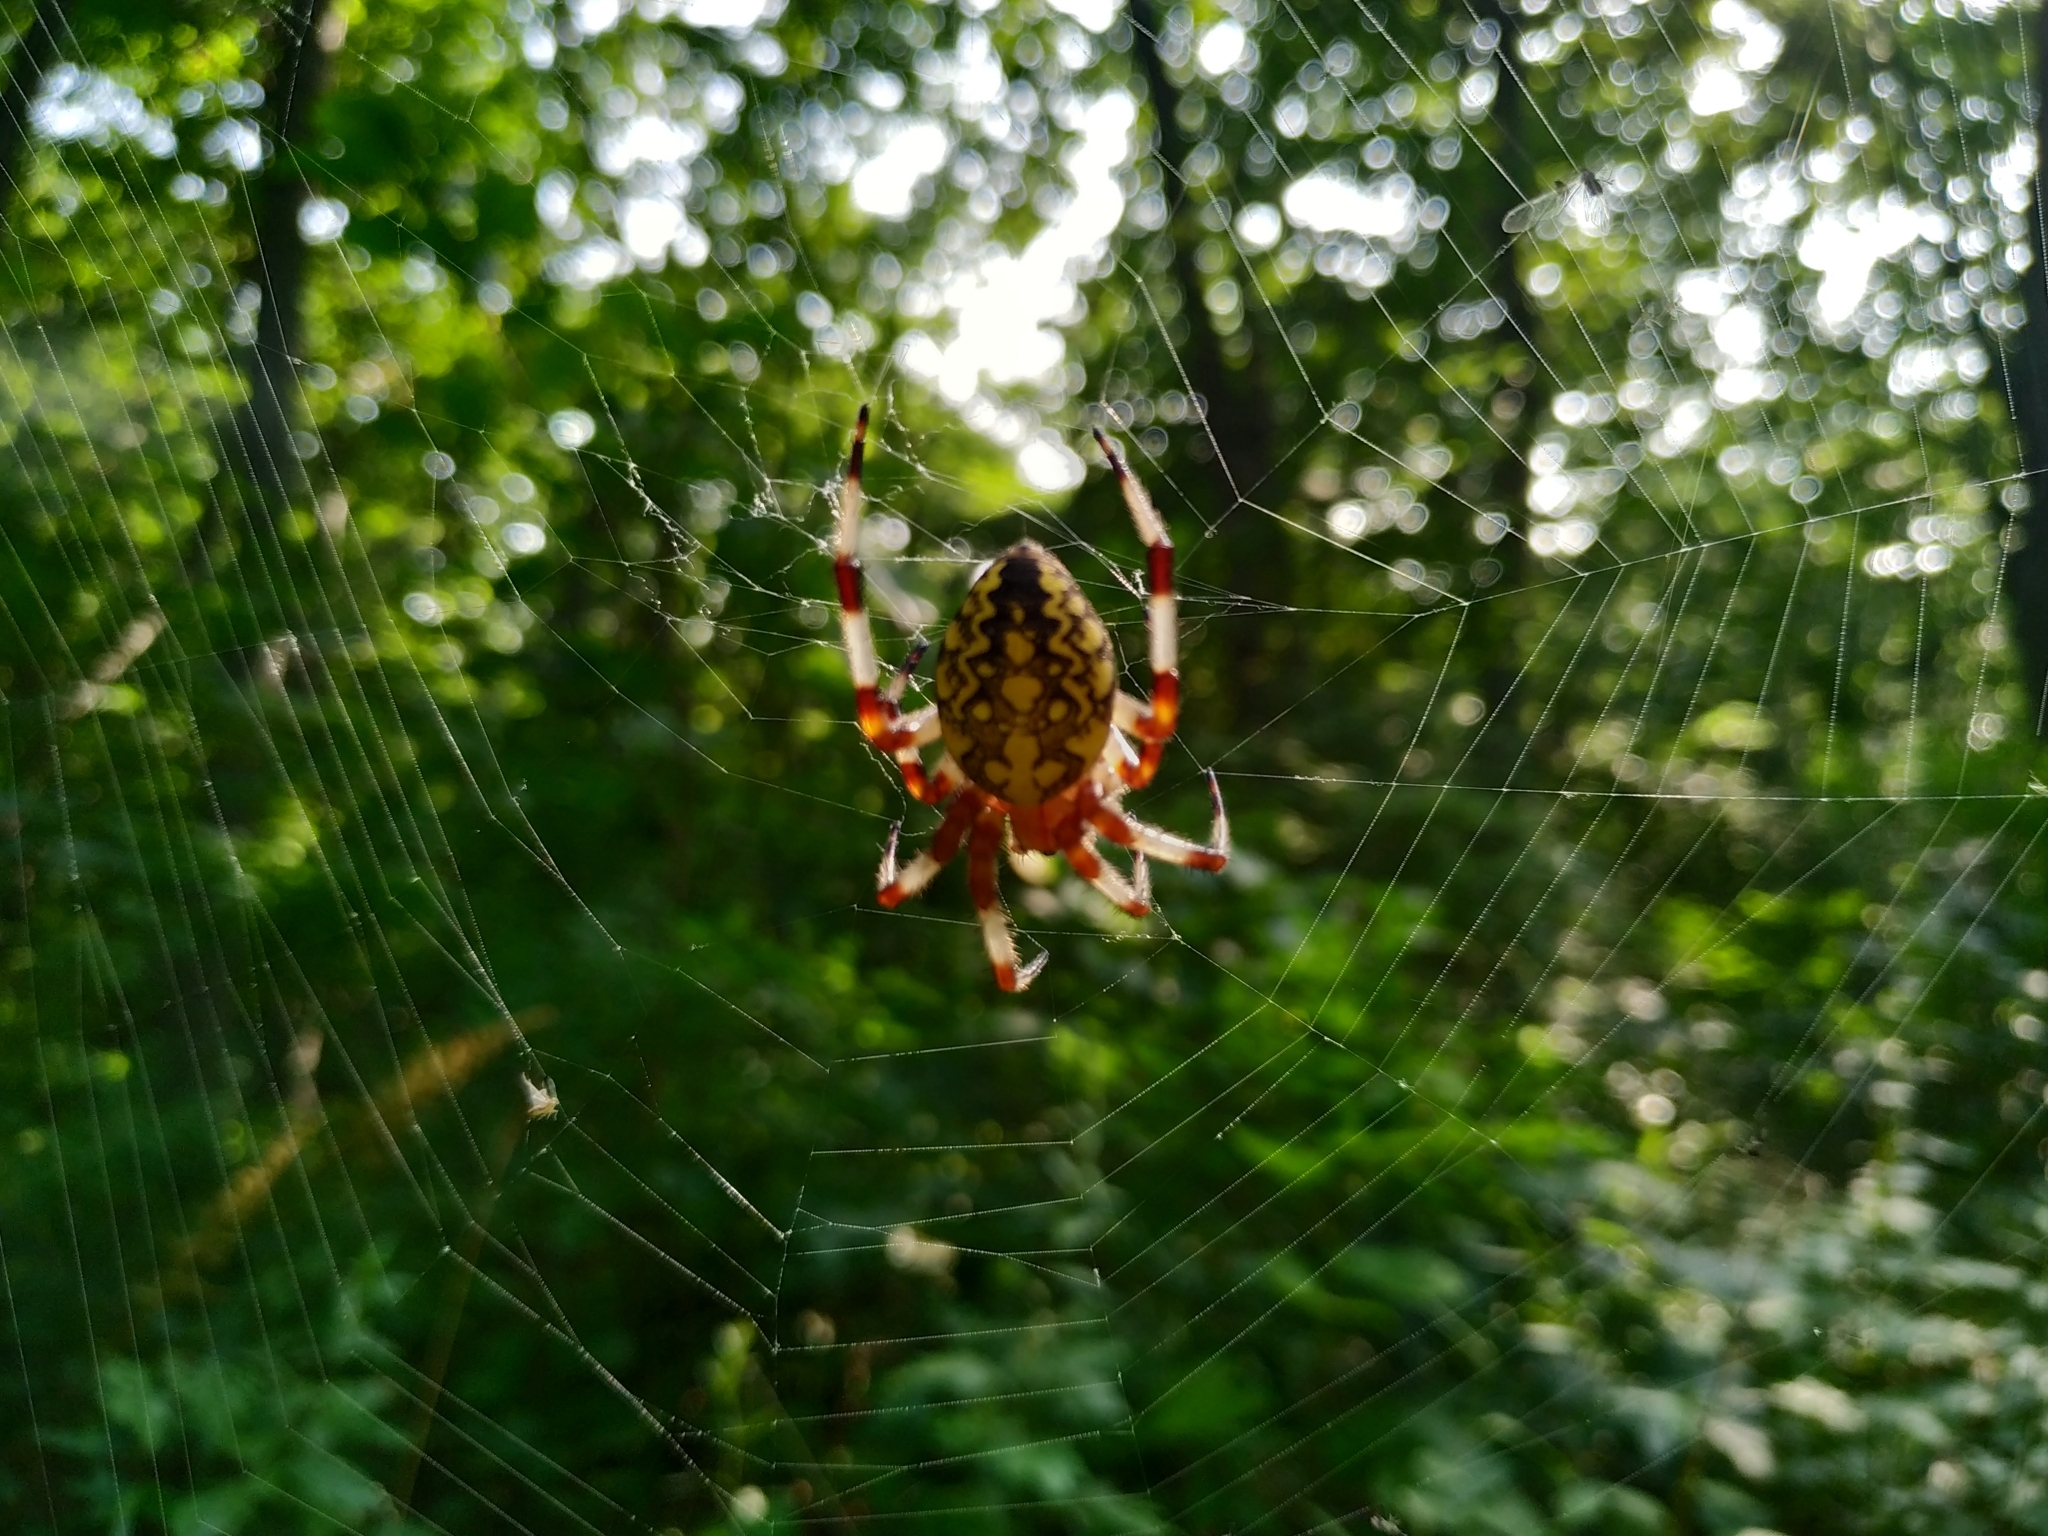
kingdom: Animalia
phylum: Arthropoda
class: Arachnida
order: Araneae
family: Araneidae
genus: Araneus
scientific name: Araneus marmoreus
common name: Marbled orbweaver
